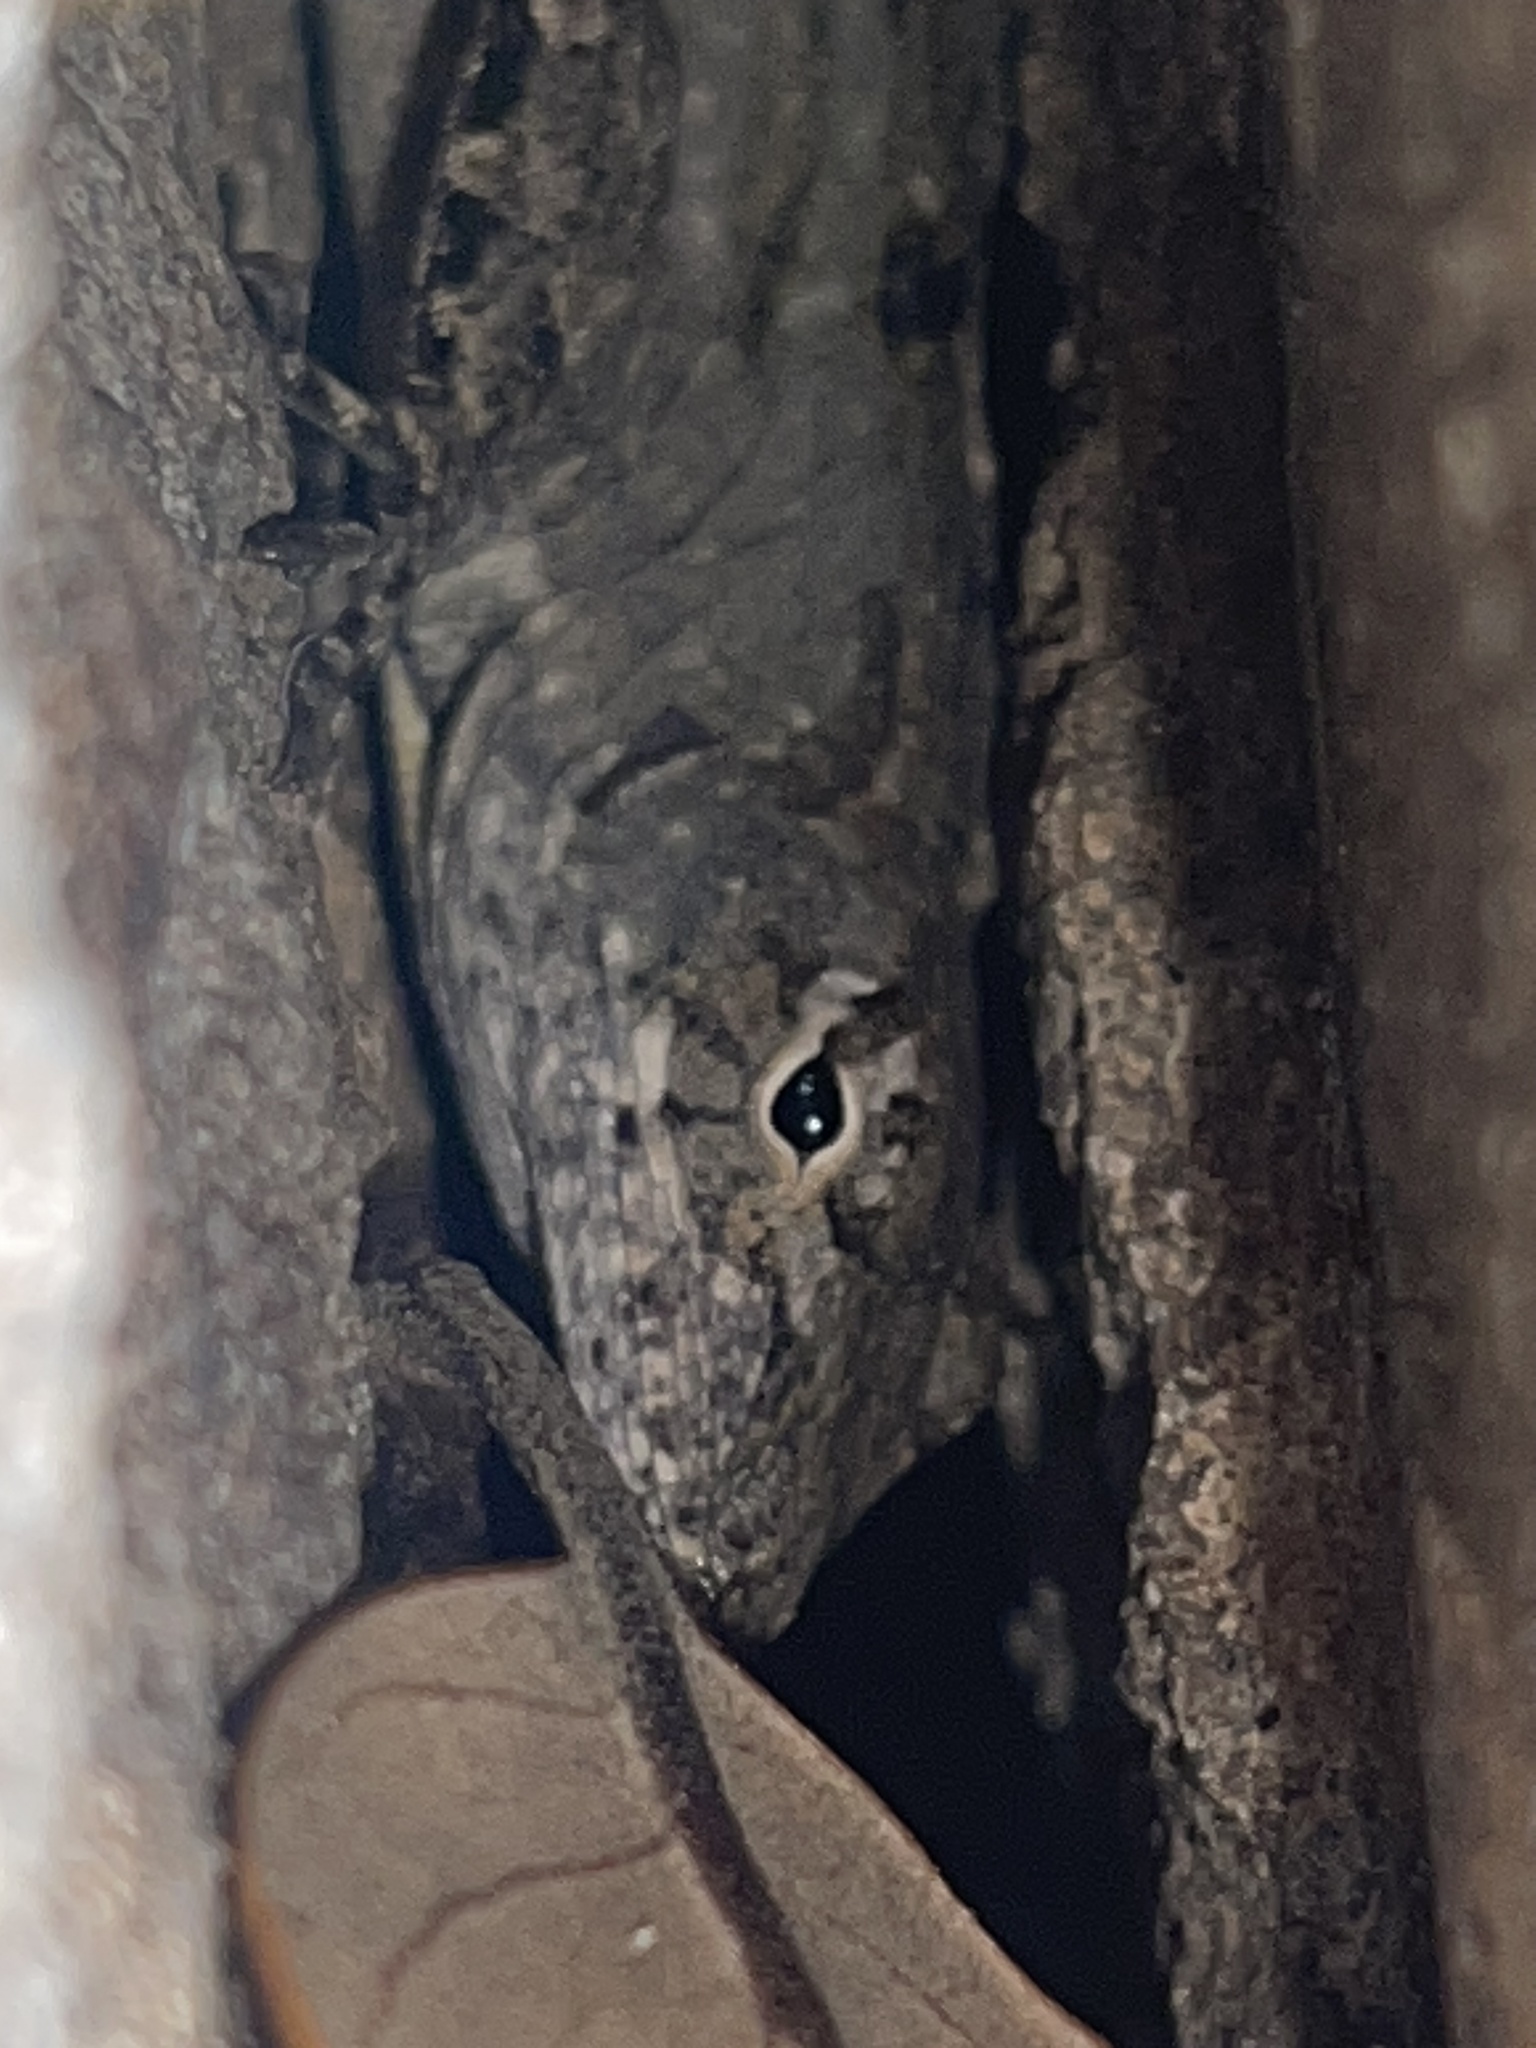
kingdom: Animalia
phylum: Chordata
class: Squamata
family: Dactyloidae
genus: Anolis
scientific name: Anolis sagrei
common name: Brown anole
